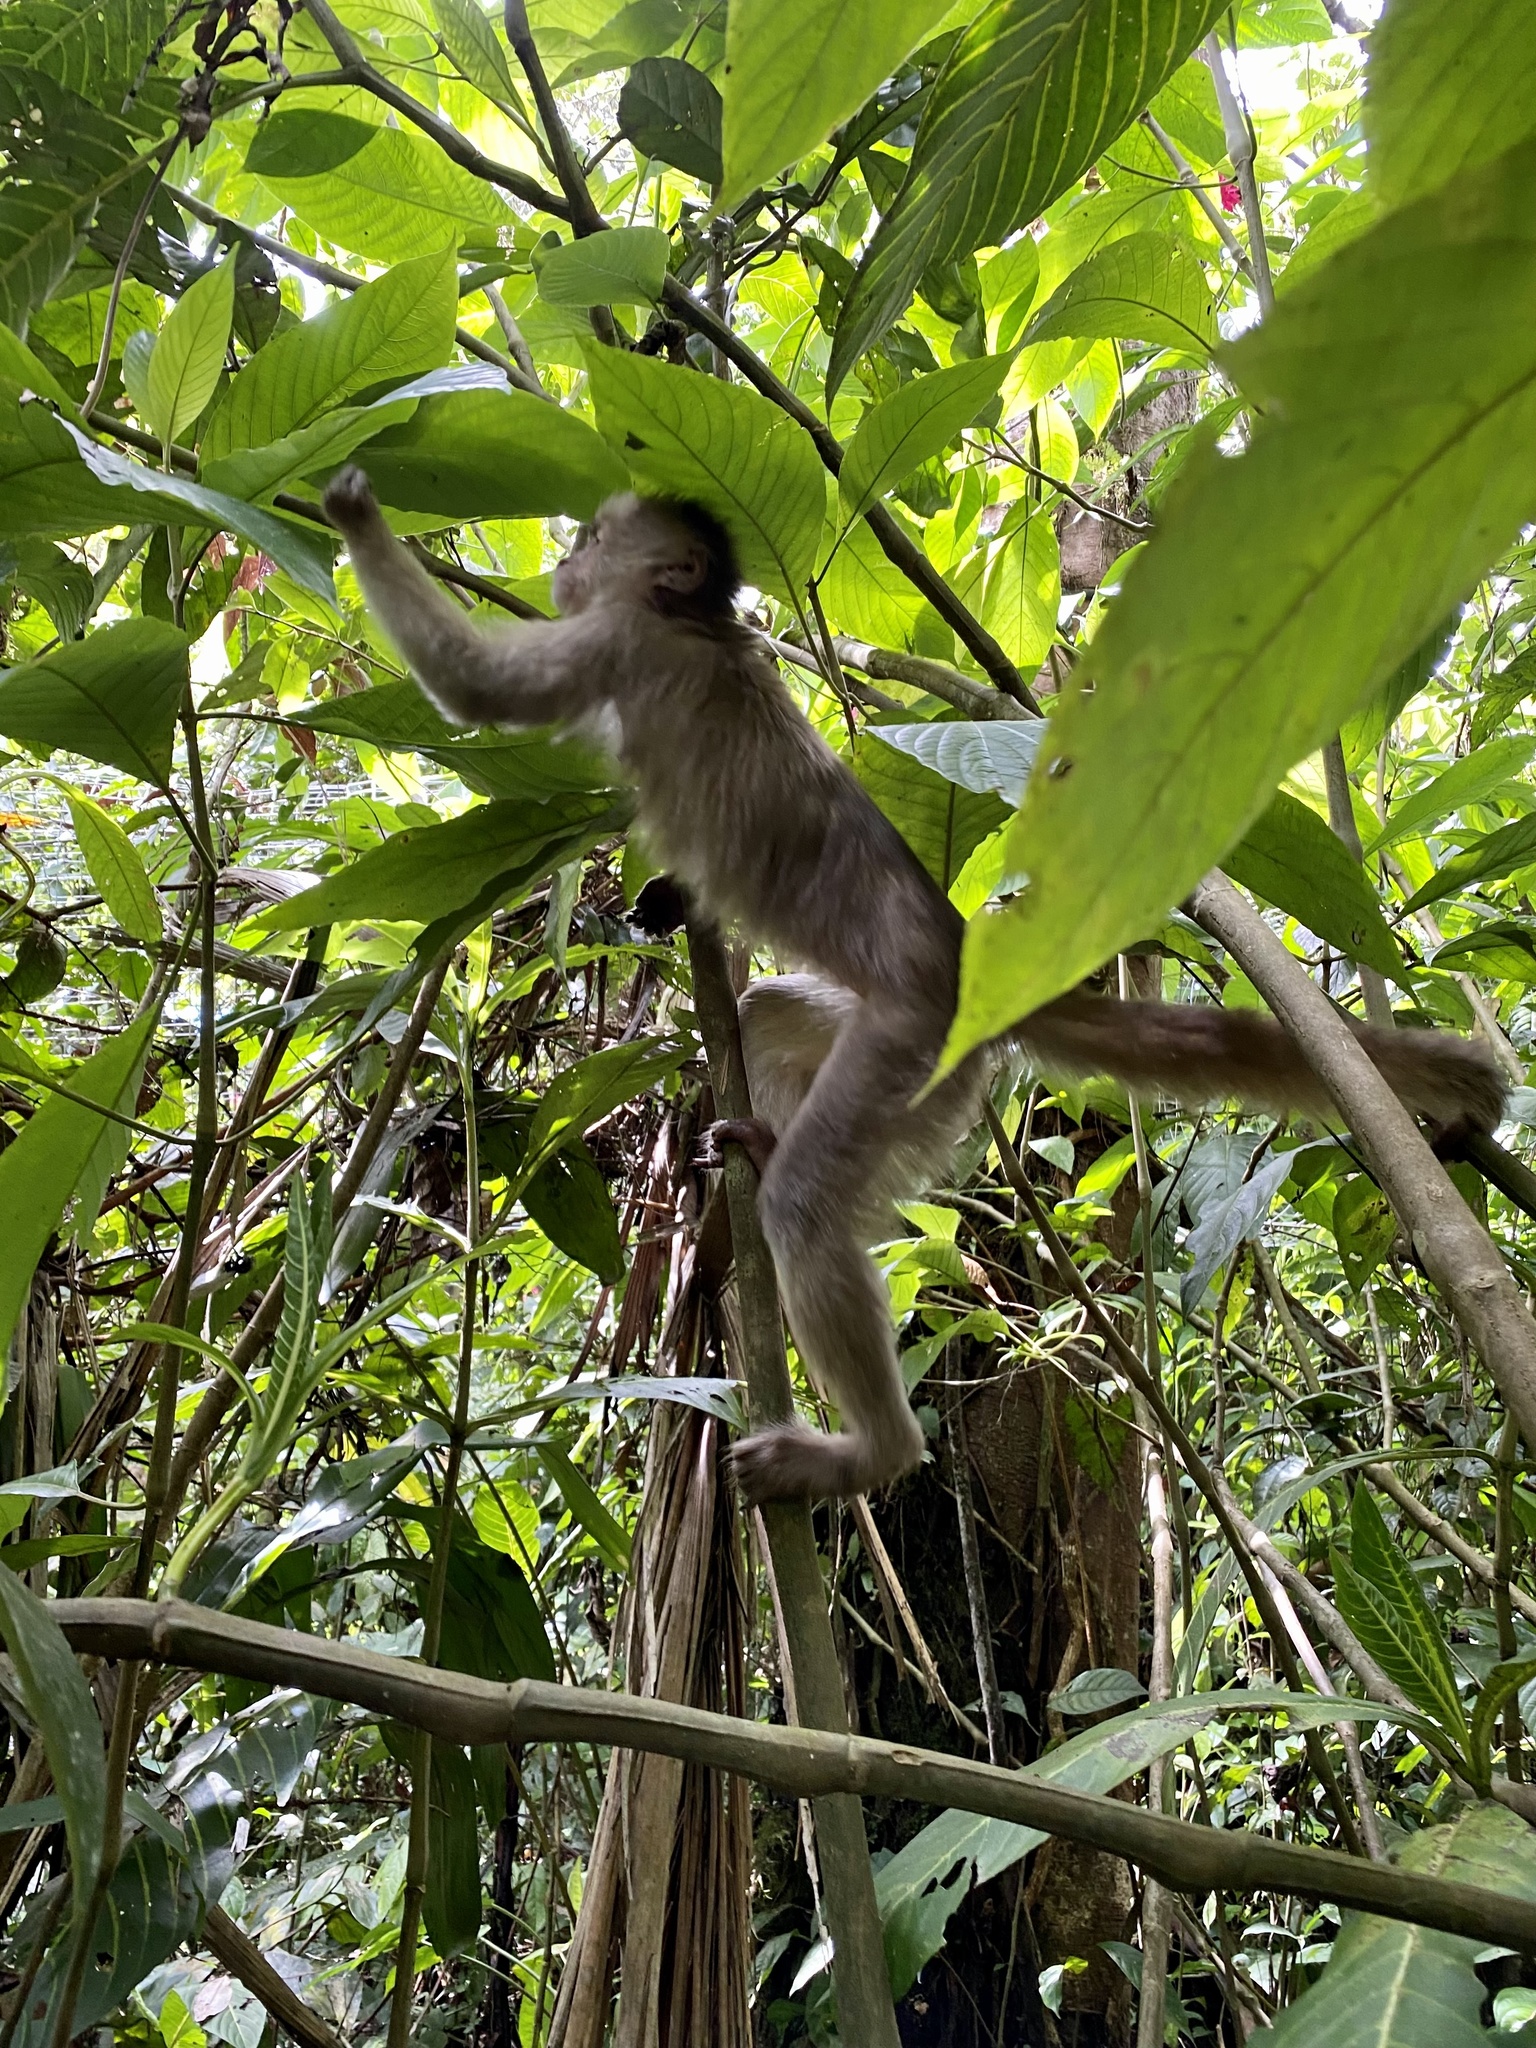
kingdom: Animalia
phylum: Chordata
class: Mammalia
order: Primates
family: Cebidae
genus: Cebus
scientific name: Cebus yuracus
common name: Peruvian white-fronted capuchin
